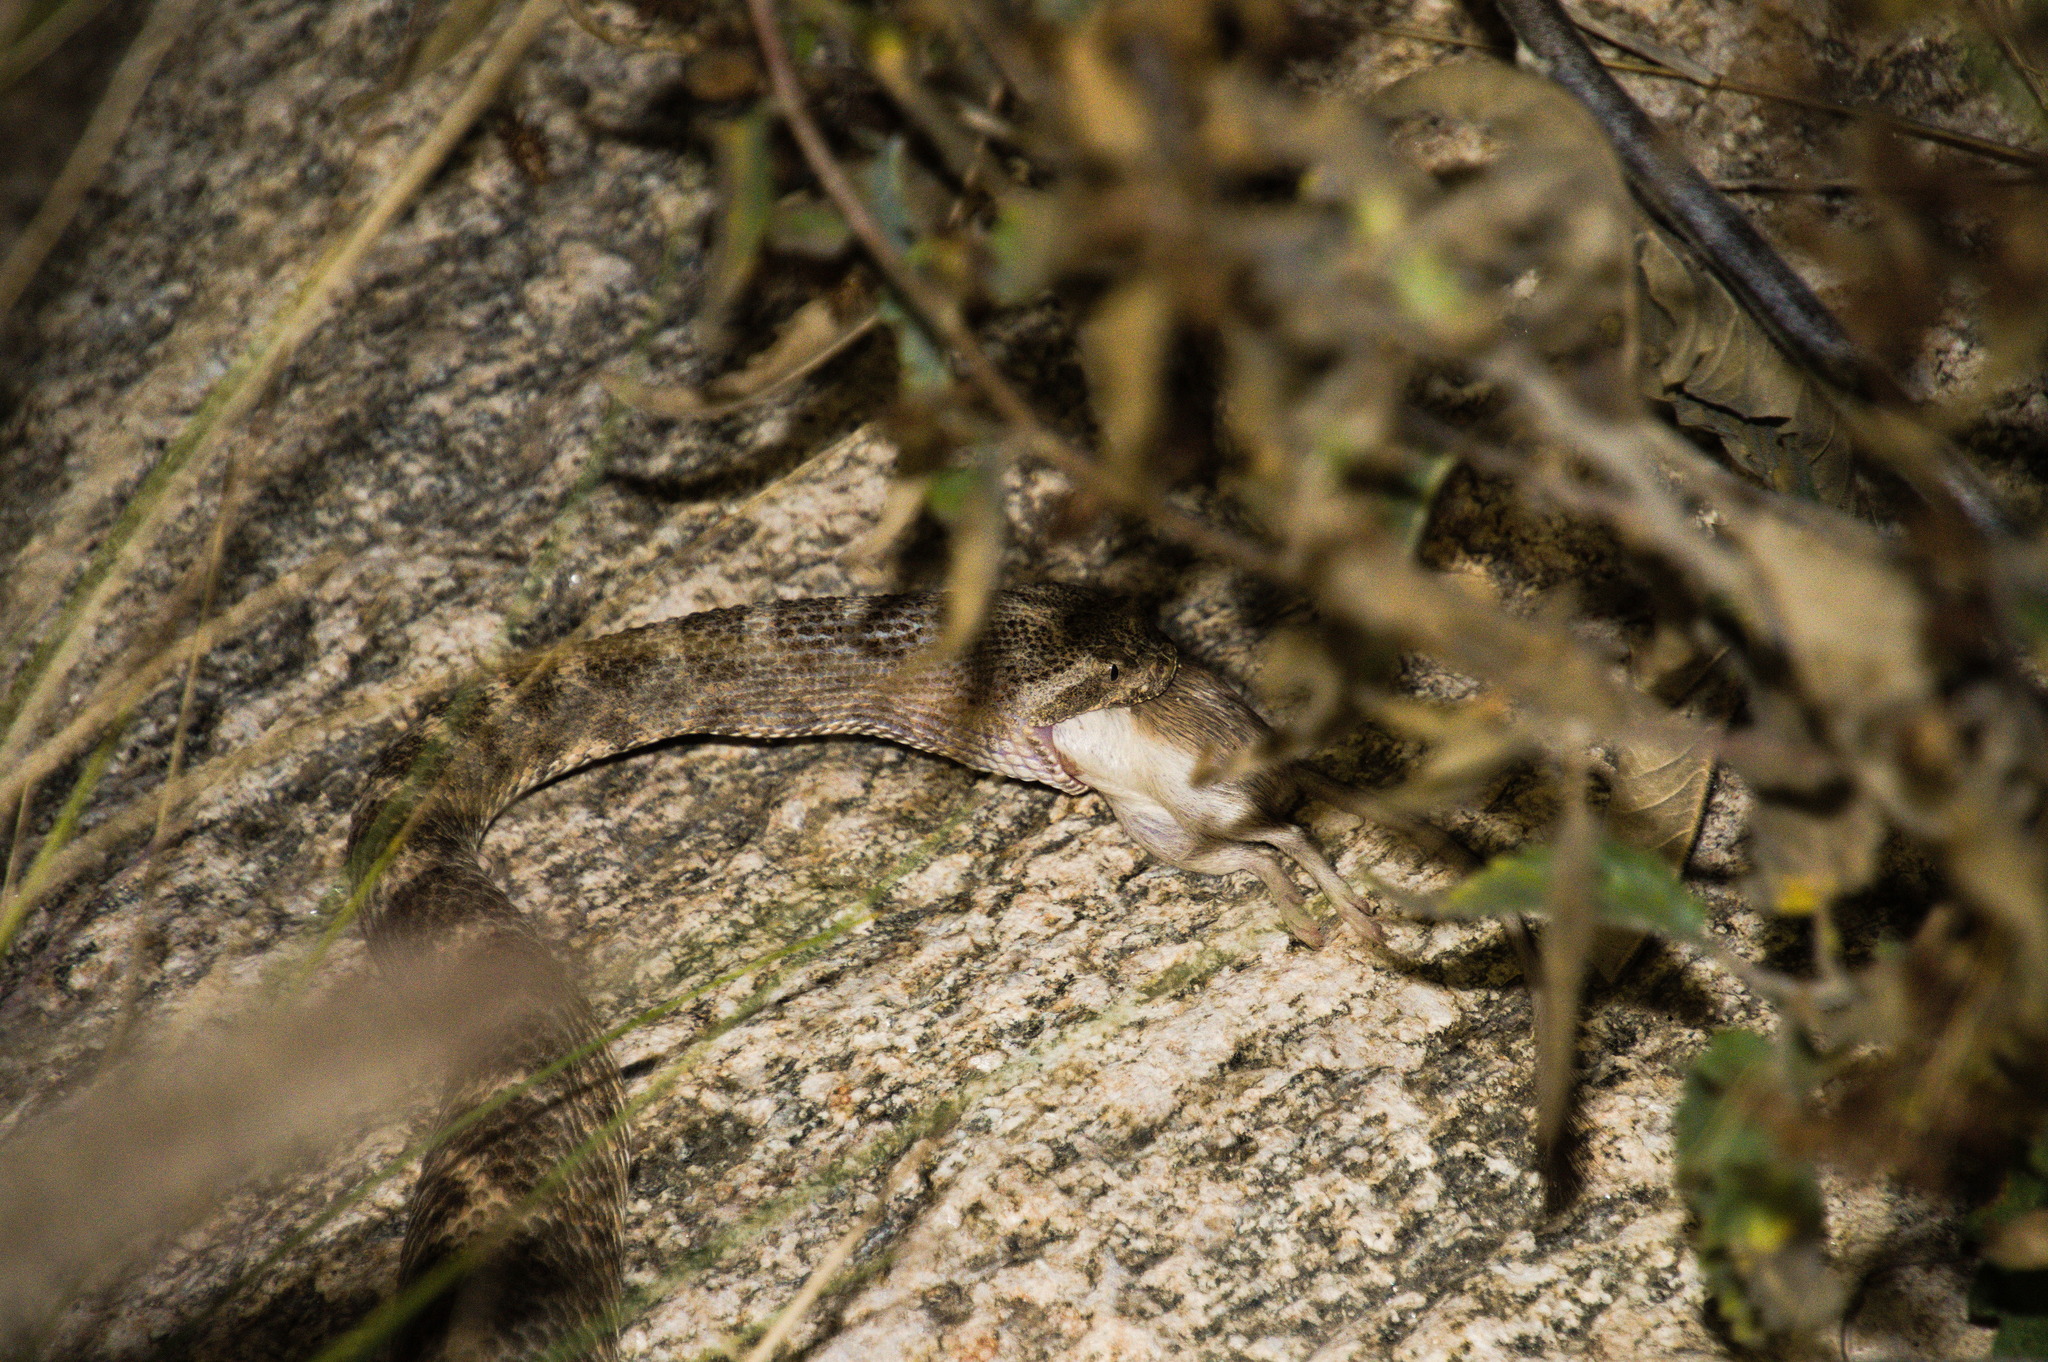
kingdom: Animalia
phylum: Chordata
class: Squamata
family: Viperidae
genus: Crotalus
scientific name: Crotalus tigris
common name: Tiger rattlesnake
